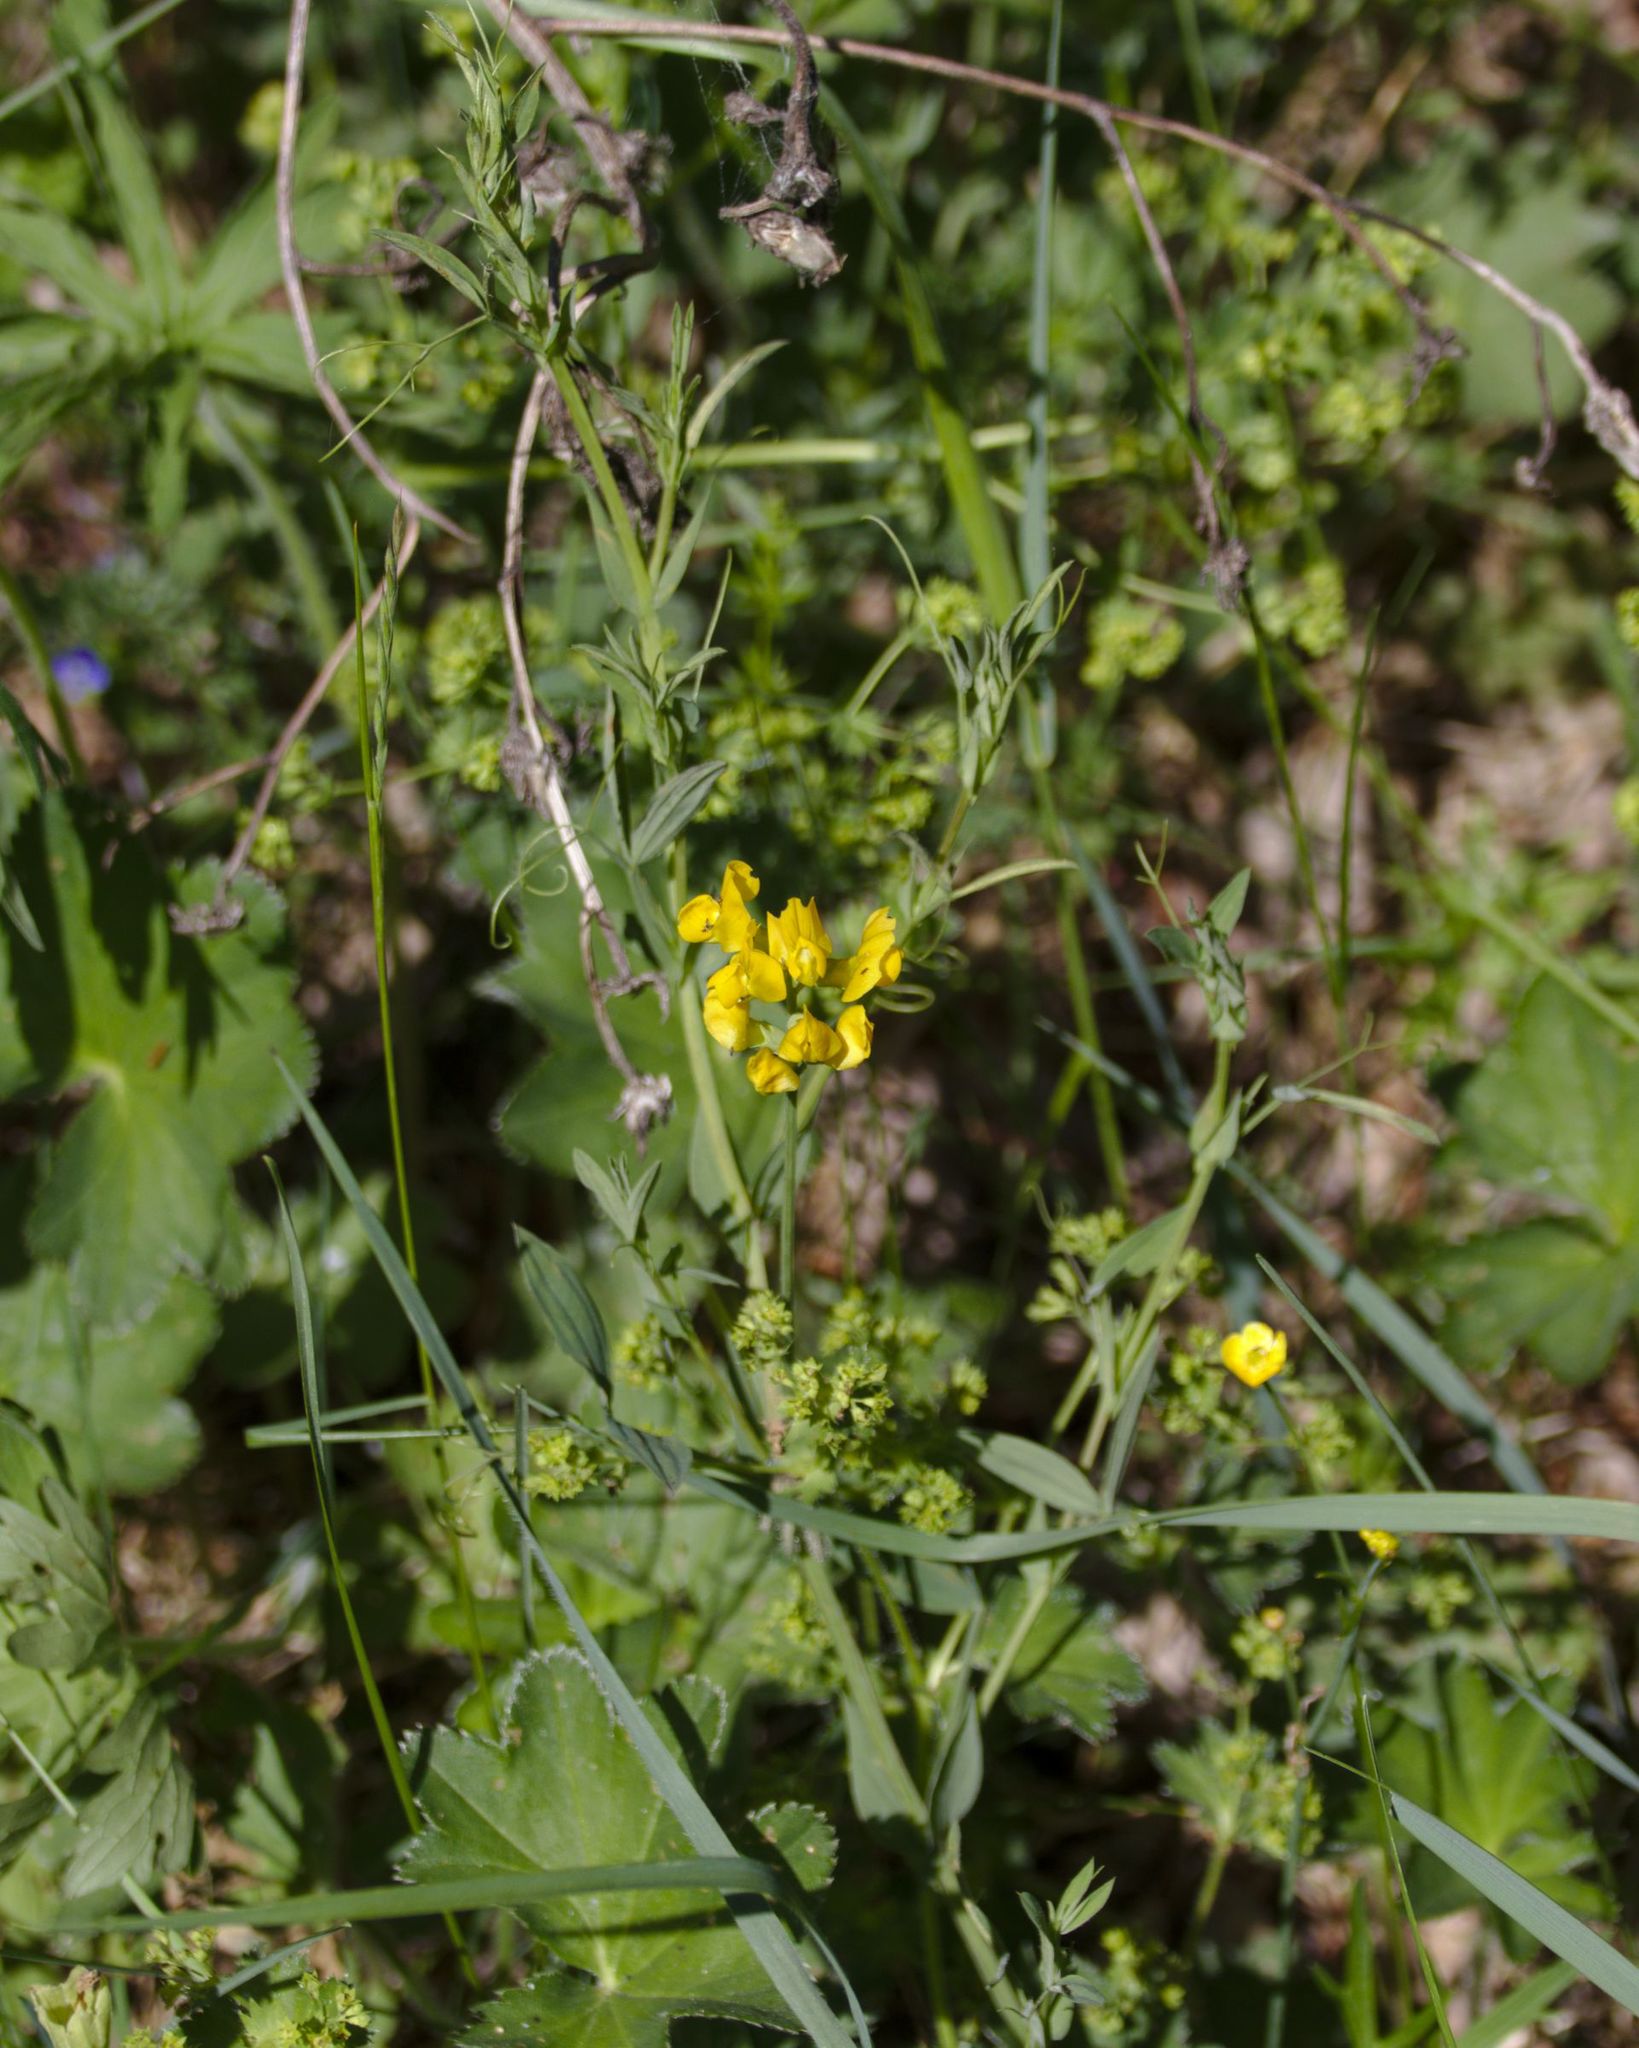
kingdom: Plantae
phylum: Tracheophyta
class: Magnoliopsida
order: Fabales
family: Fabaceae
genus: Lathyrus
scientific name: Lathyrus pratensis
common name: Meadow vetchling
